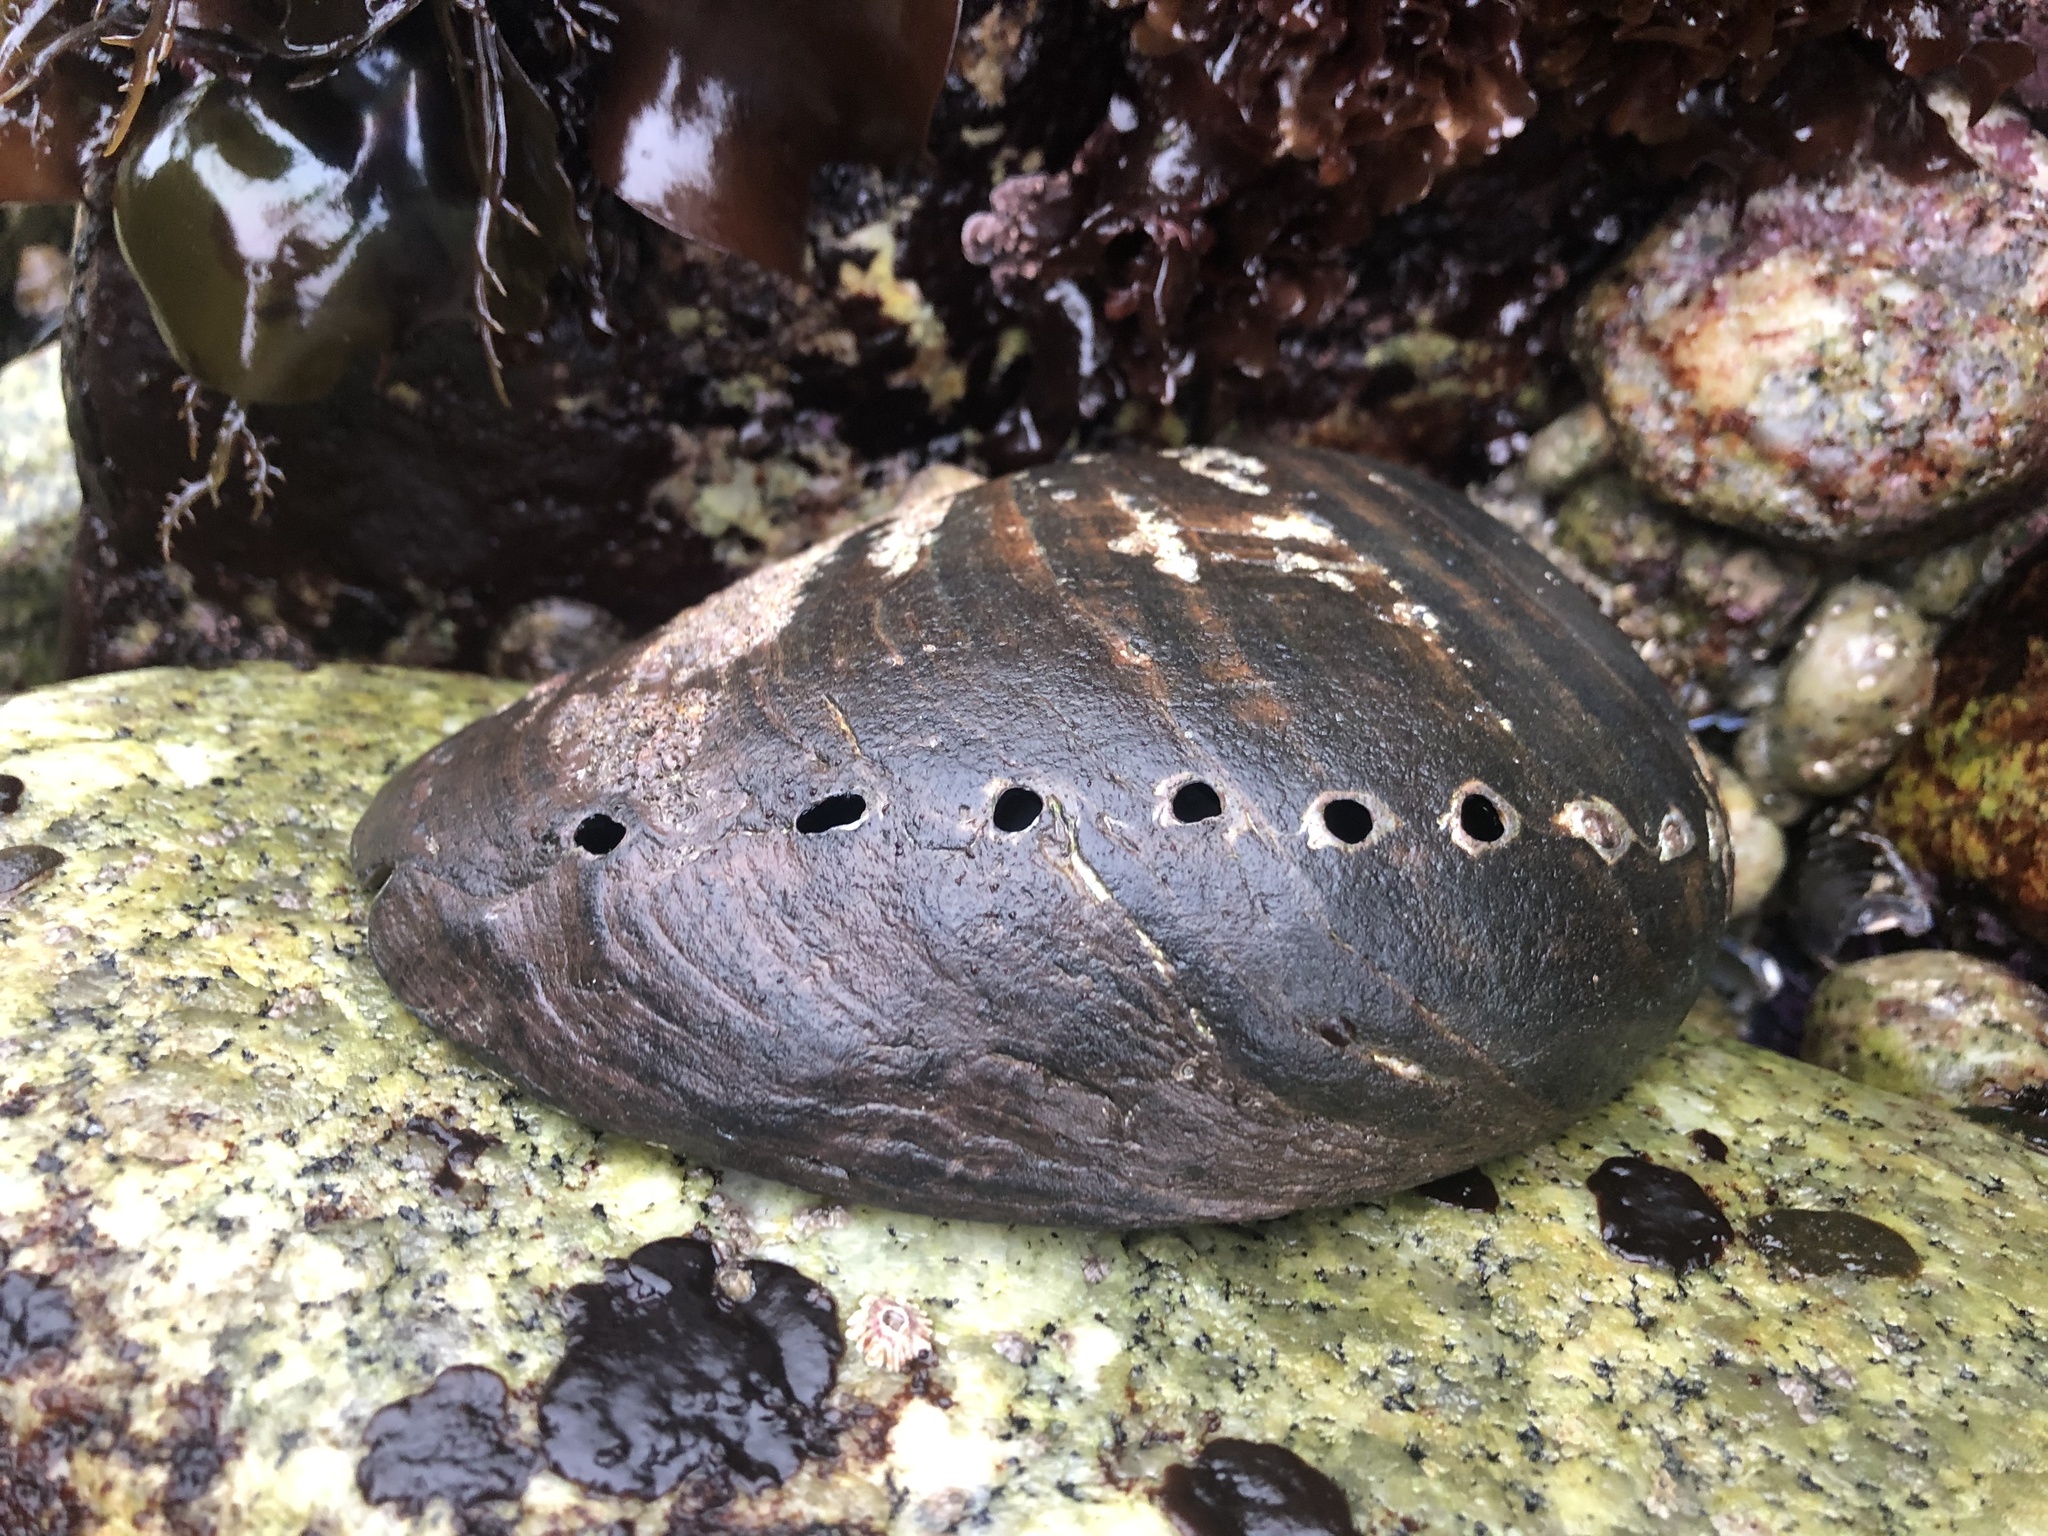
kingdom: Animalia
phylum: Mollusca
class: Gastropoda
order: Lepetellida
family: Haliotidae
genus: Haliotis
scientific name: Haliotis cracherodii
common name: Black abalone
